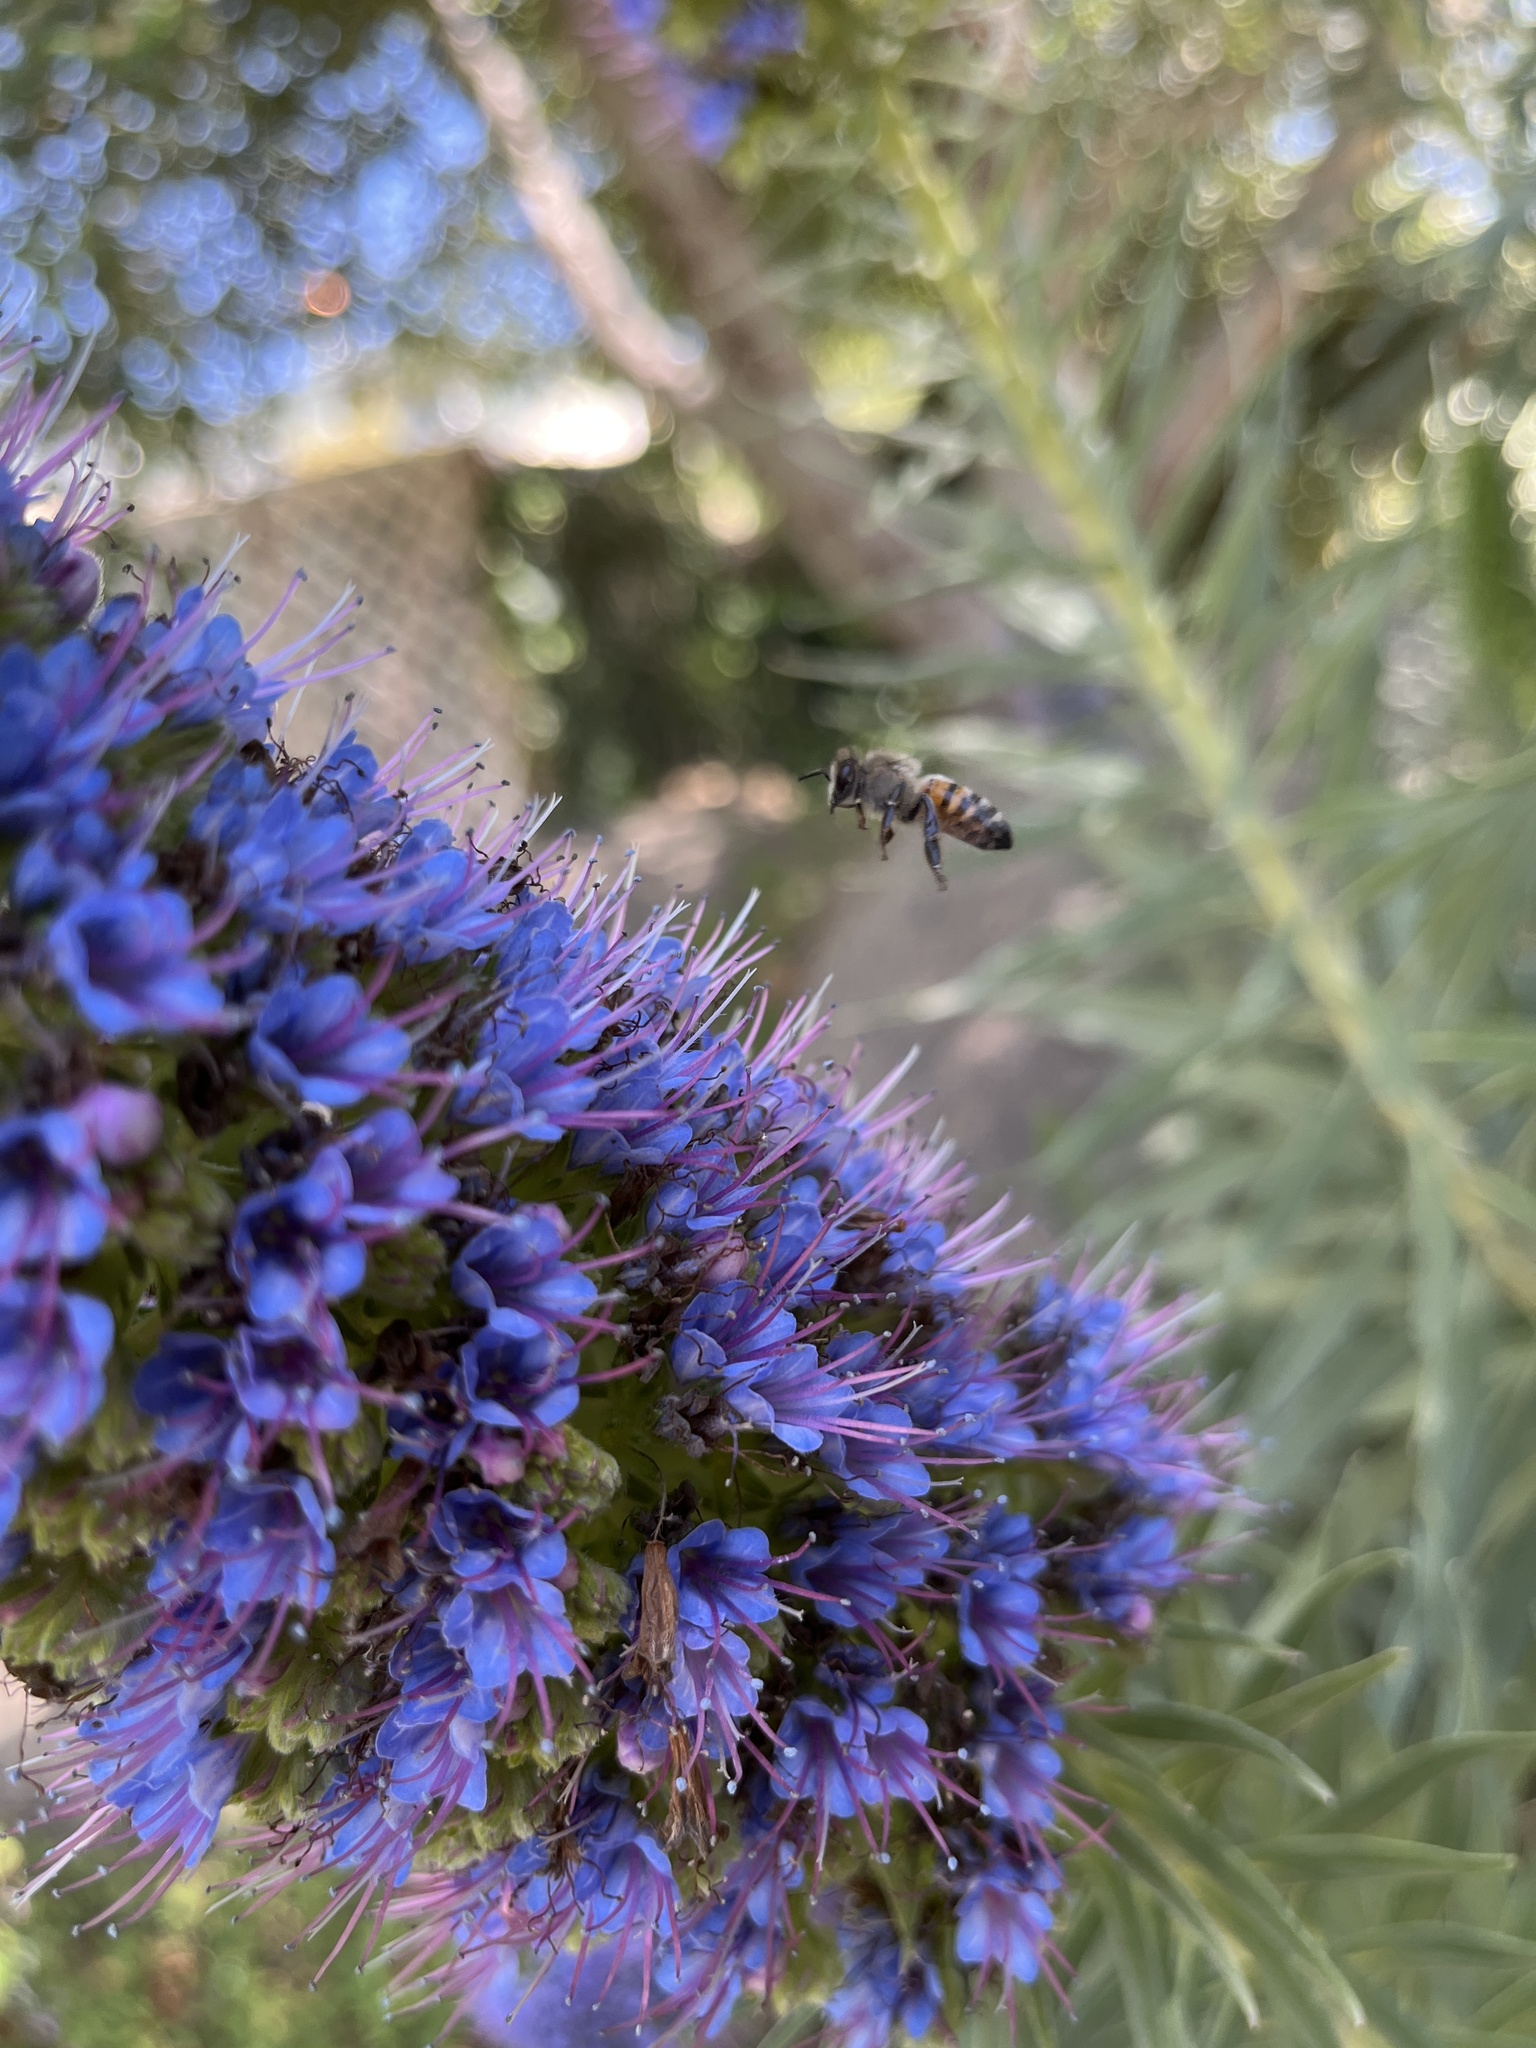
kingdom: Animalia
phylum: Arthropoda
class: Insecta
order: Hymenoptera
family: Apidae
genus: Apis
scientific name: Apis mellifera
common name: Honey bee
